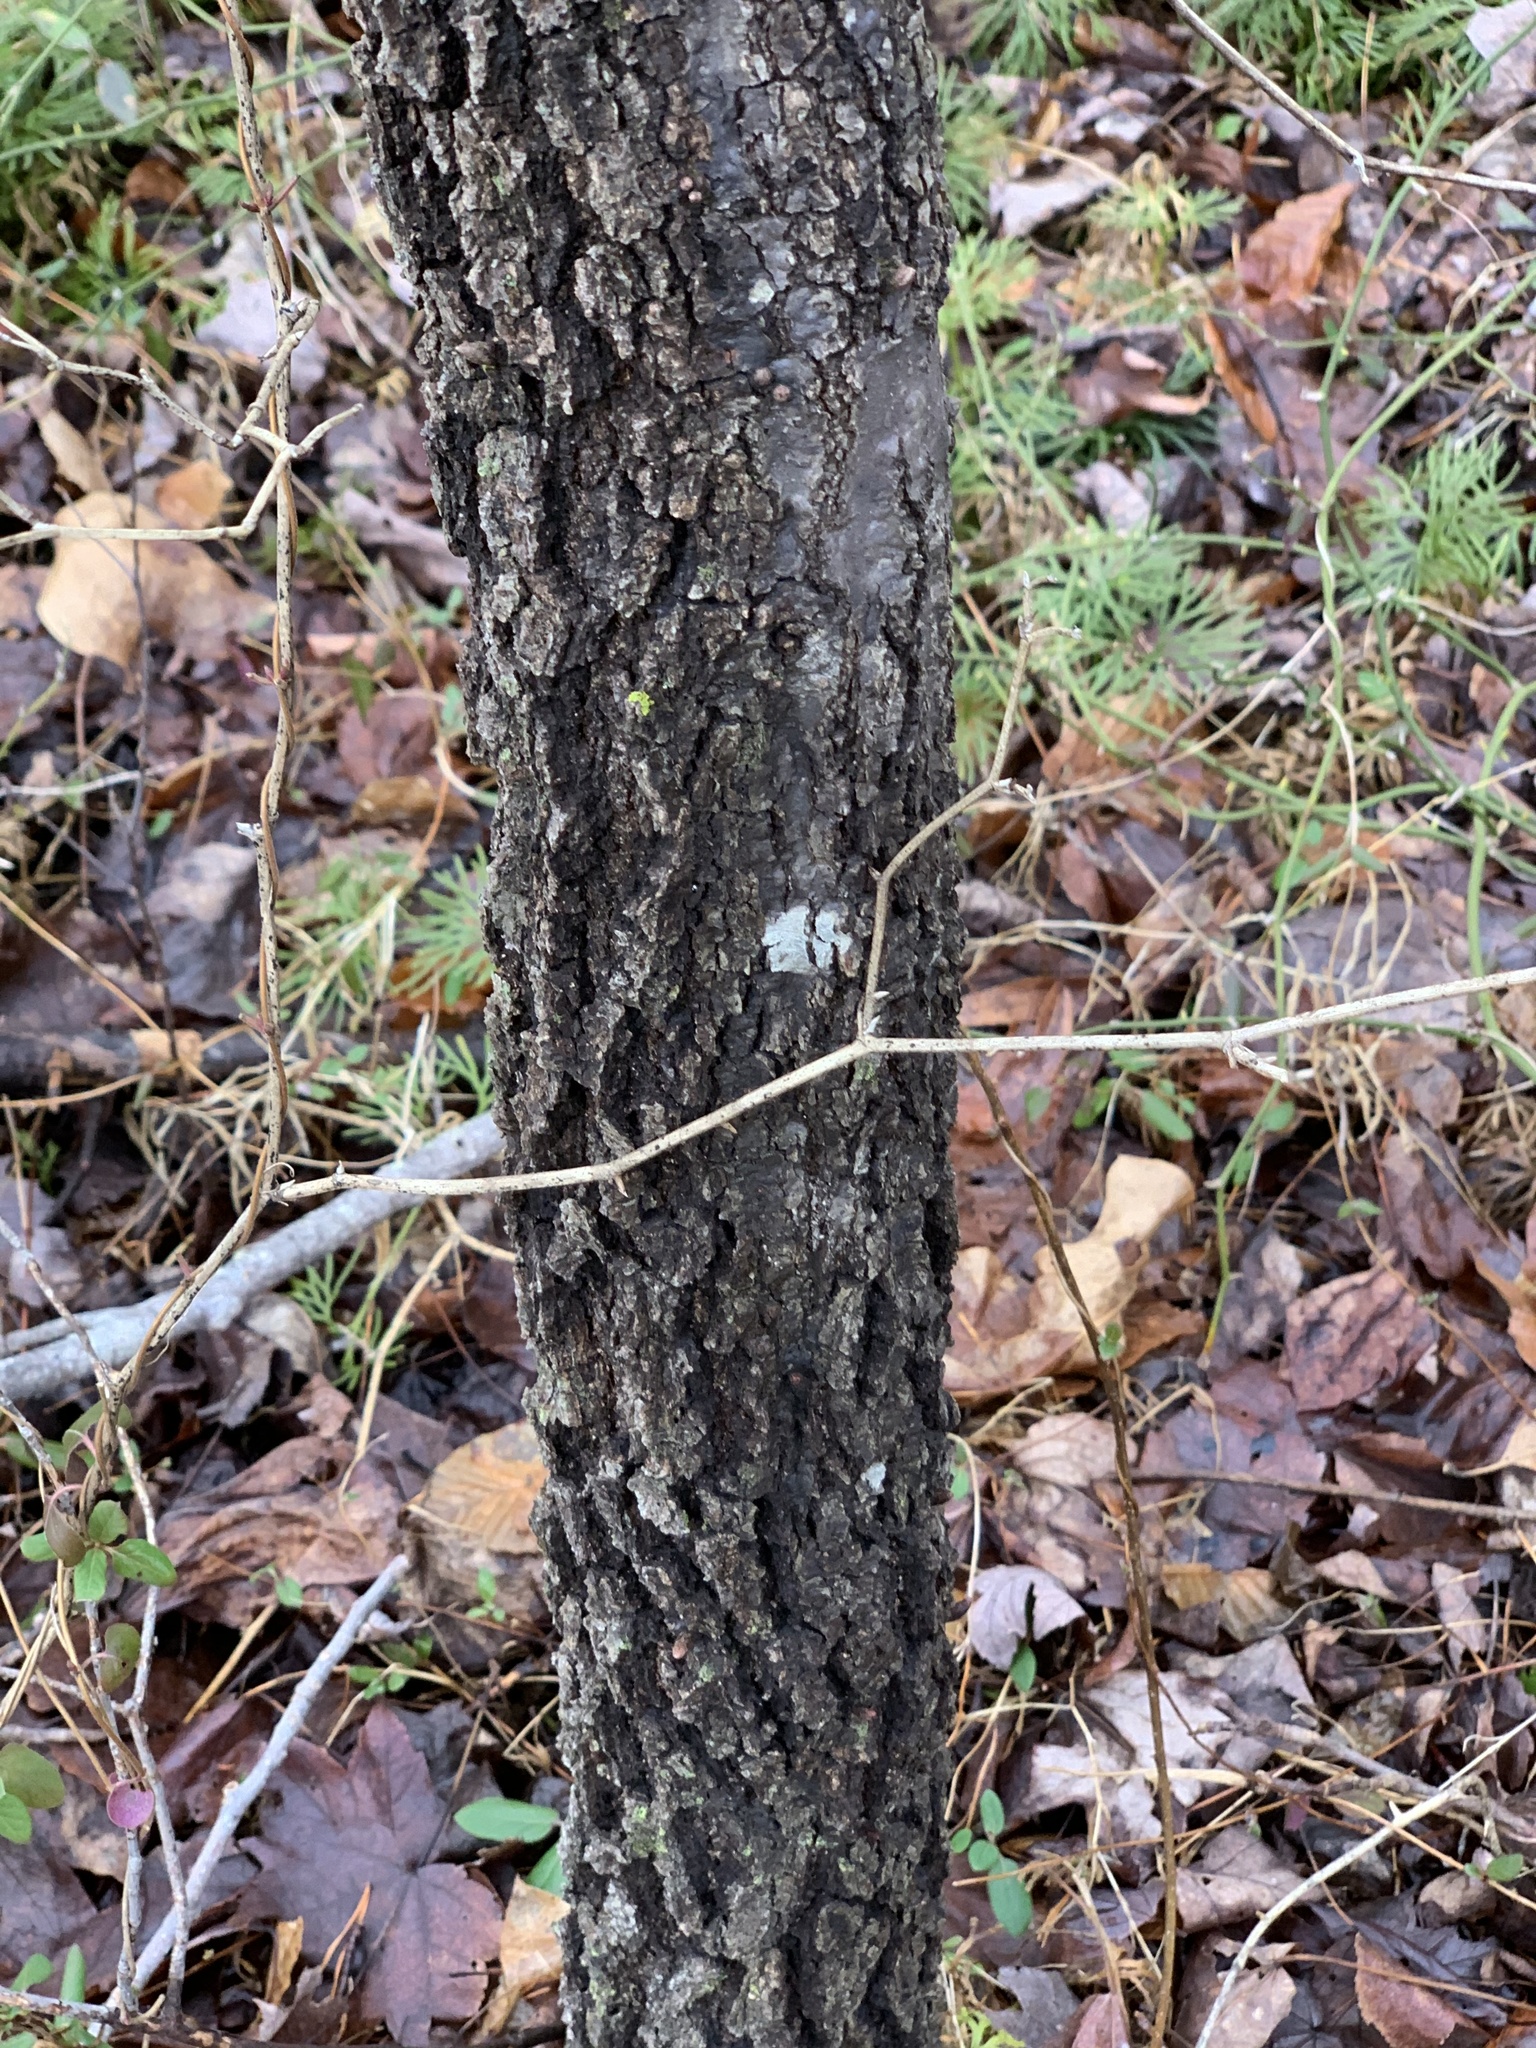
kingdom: Plantae
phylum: Tracheophyta
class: Magnoliopsida
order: Fagales
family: Fagaceae
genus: Quercus
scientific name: Quercus velutina
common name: Black oak
